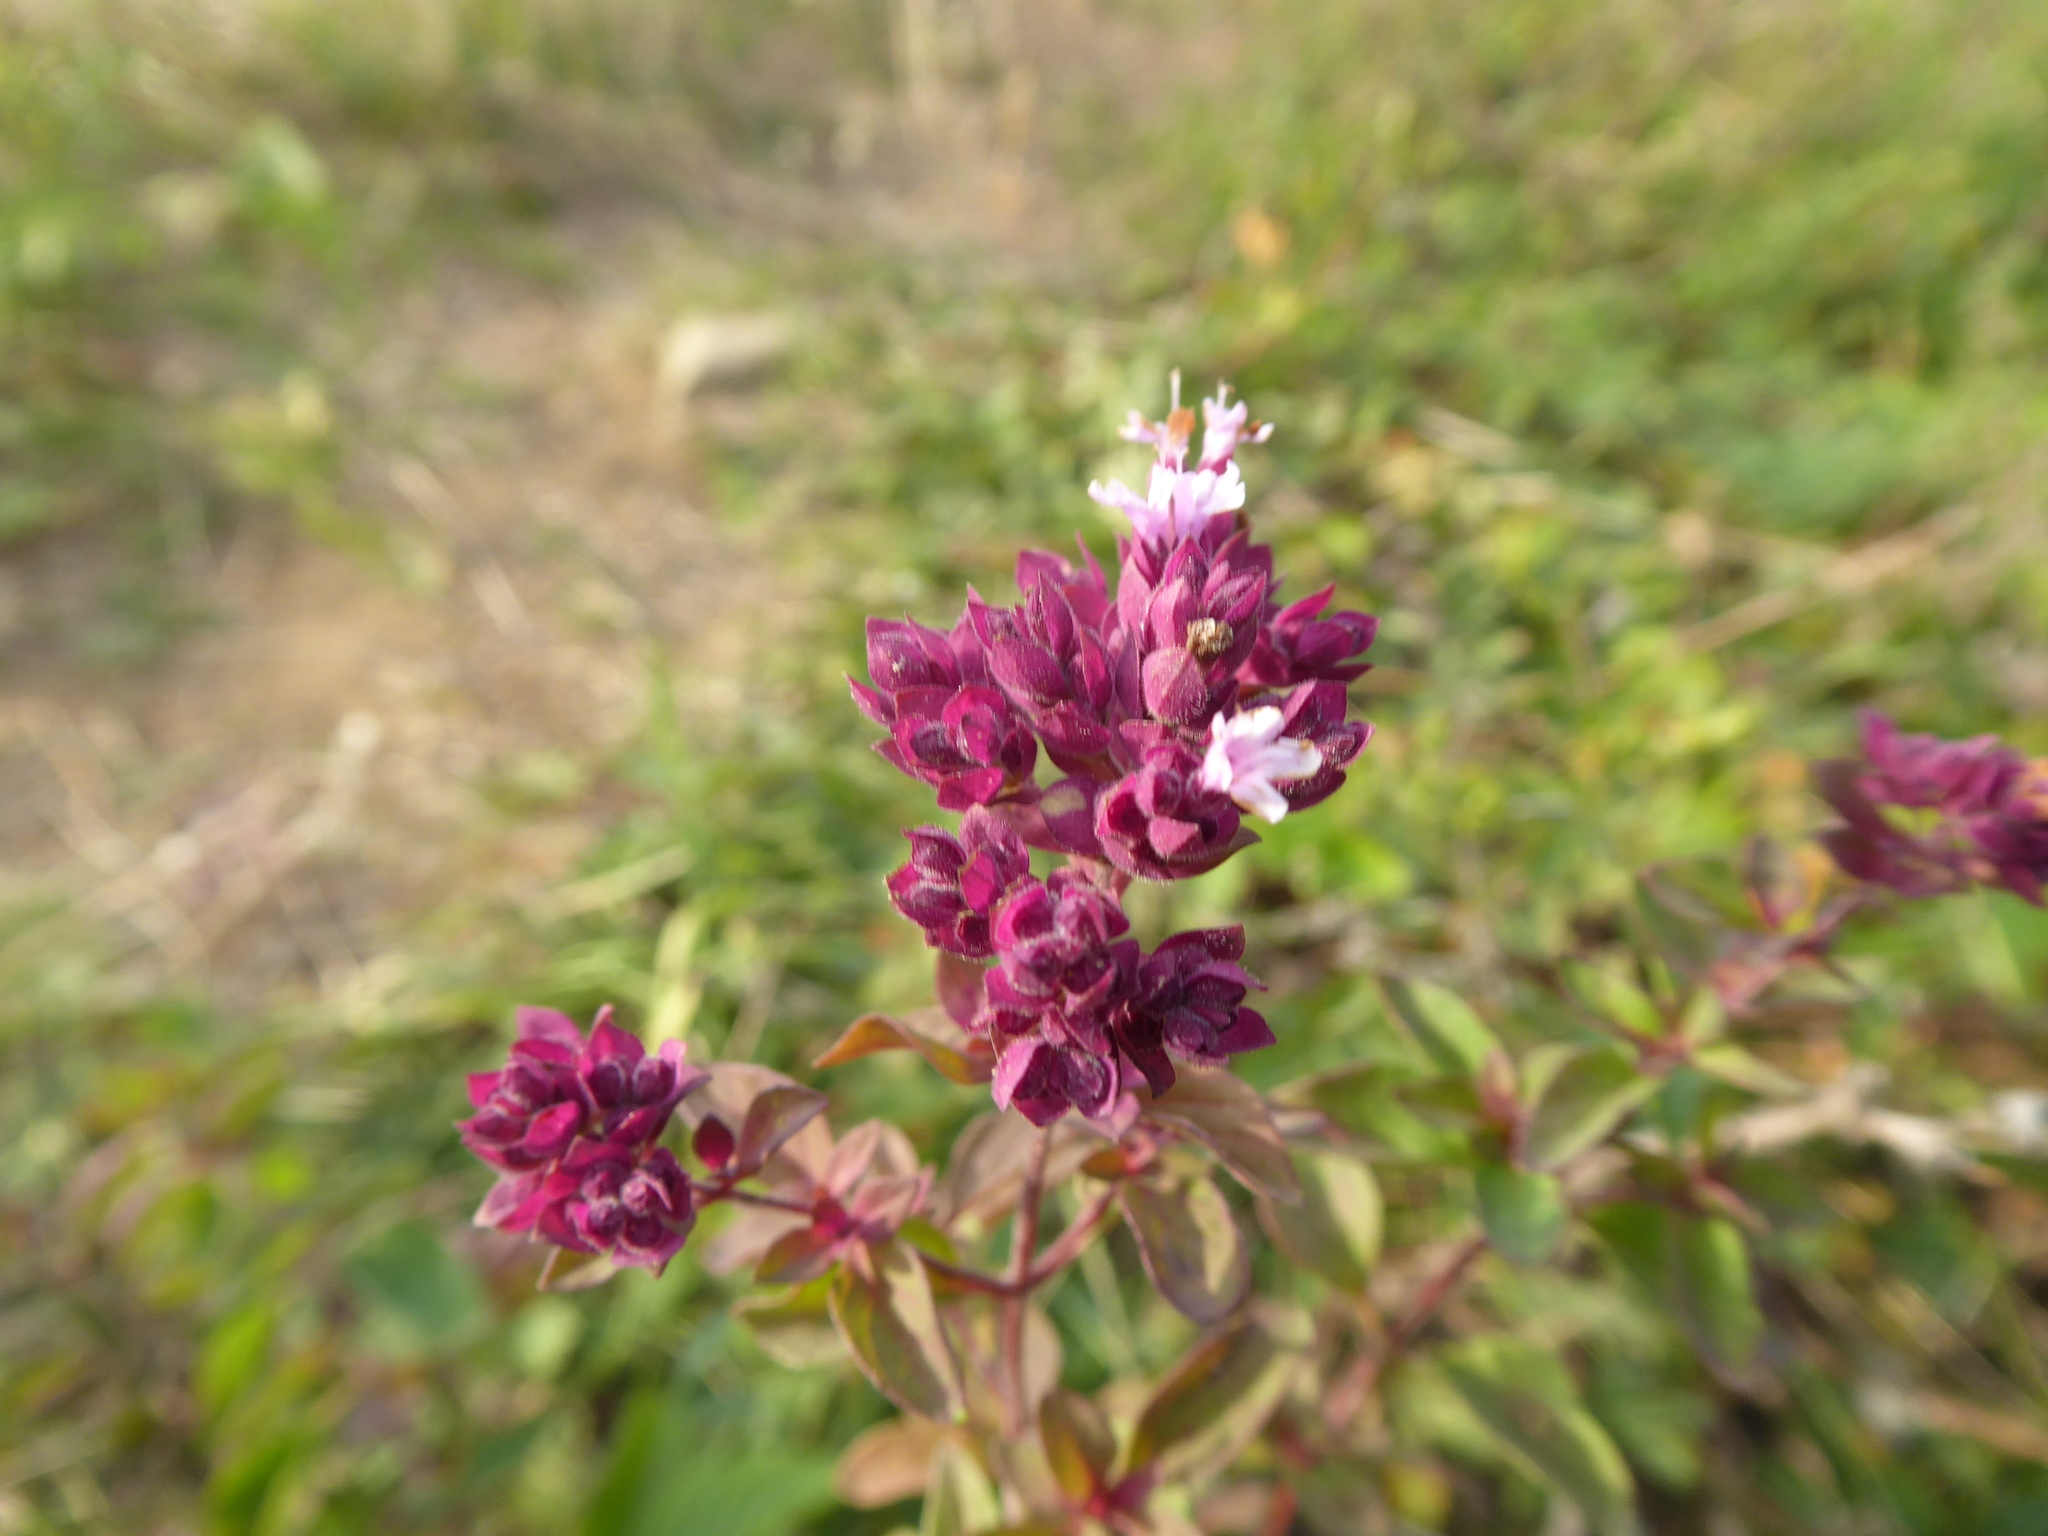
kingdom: Plantae
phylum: Tracheophyta
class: Magnoliopsida
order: Lamiales
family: Lamiaceae
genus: Origanum
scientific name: Origanum vulgare
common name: Wild marjoram
